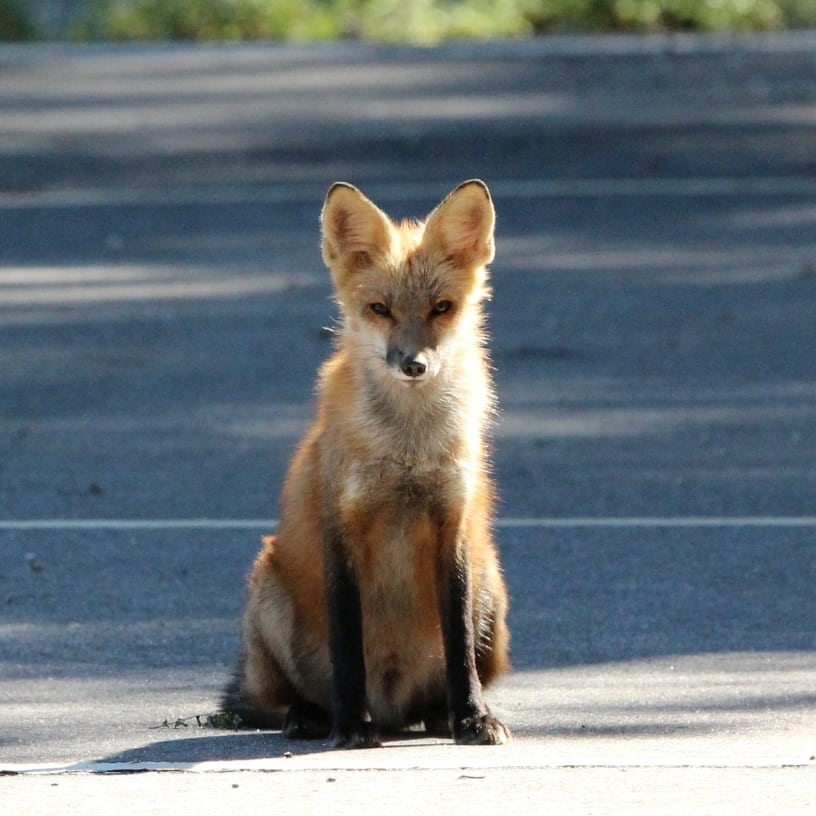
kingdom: Animalia
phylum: Chordata
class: Mammalia
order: Carnivora
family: Canidae
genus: Vulpes
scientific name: Vulpes vulpes
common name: Red fox
